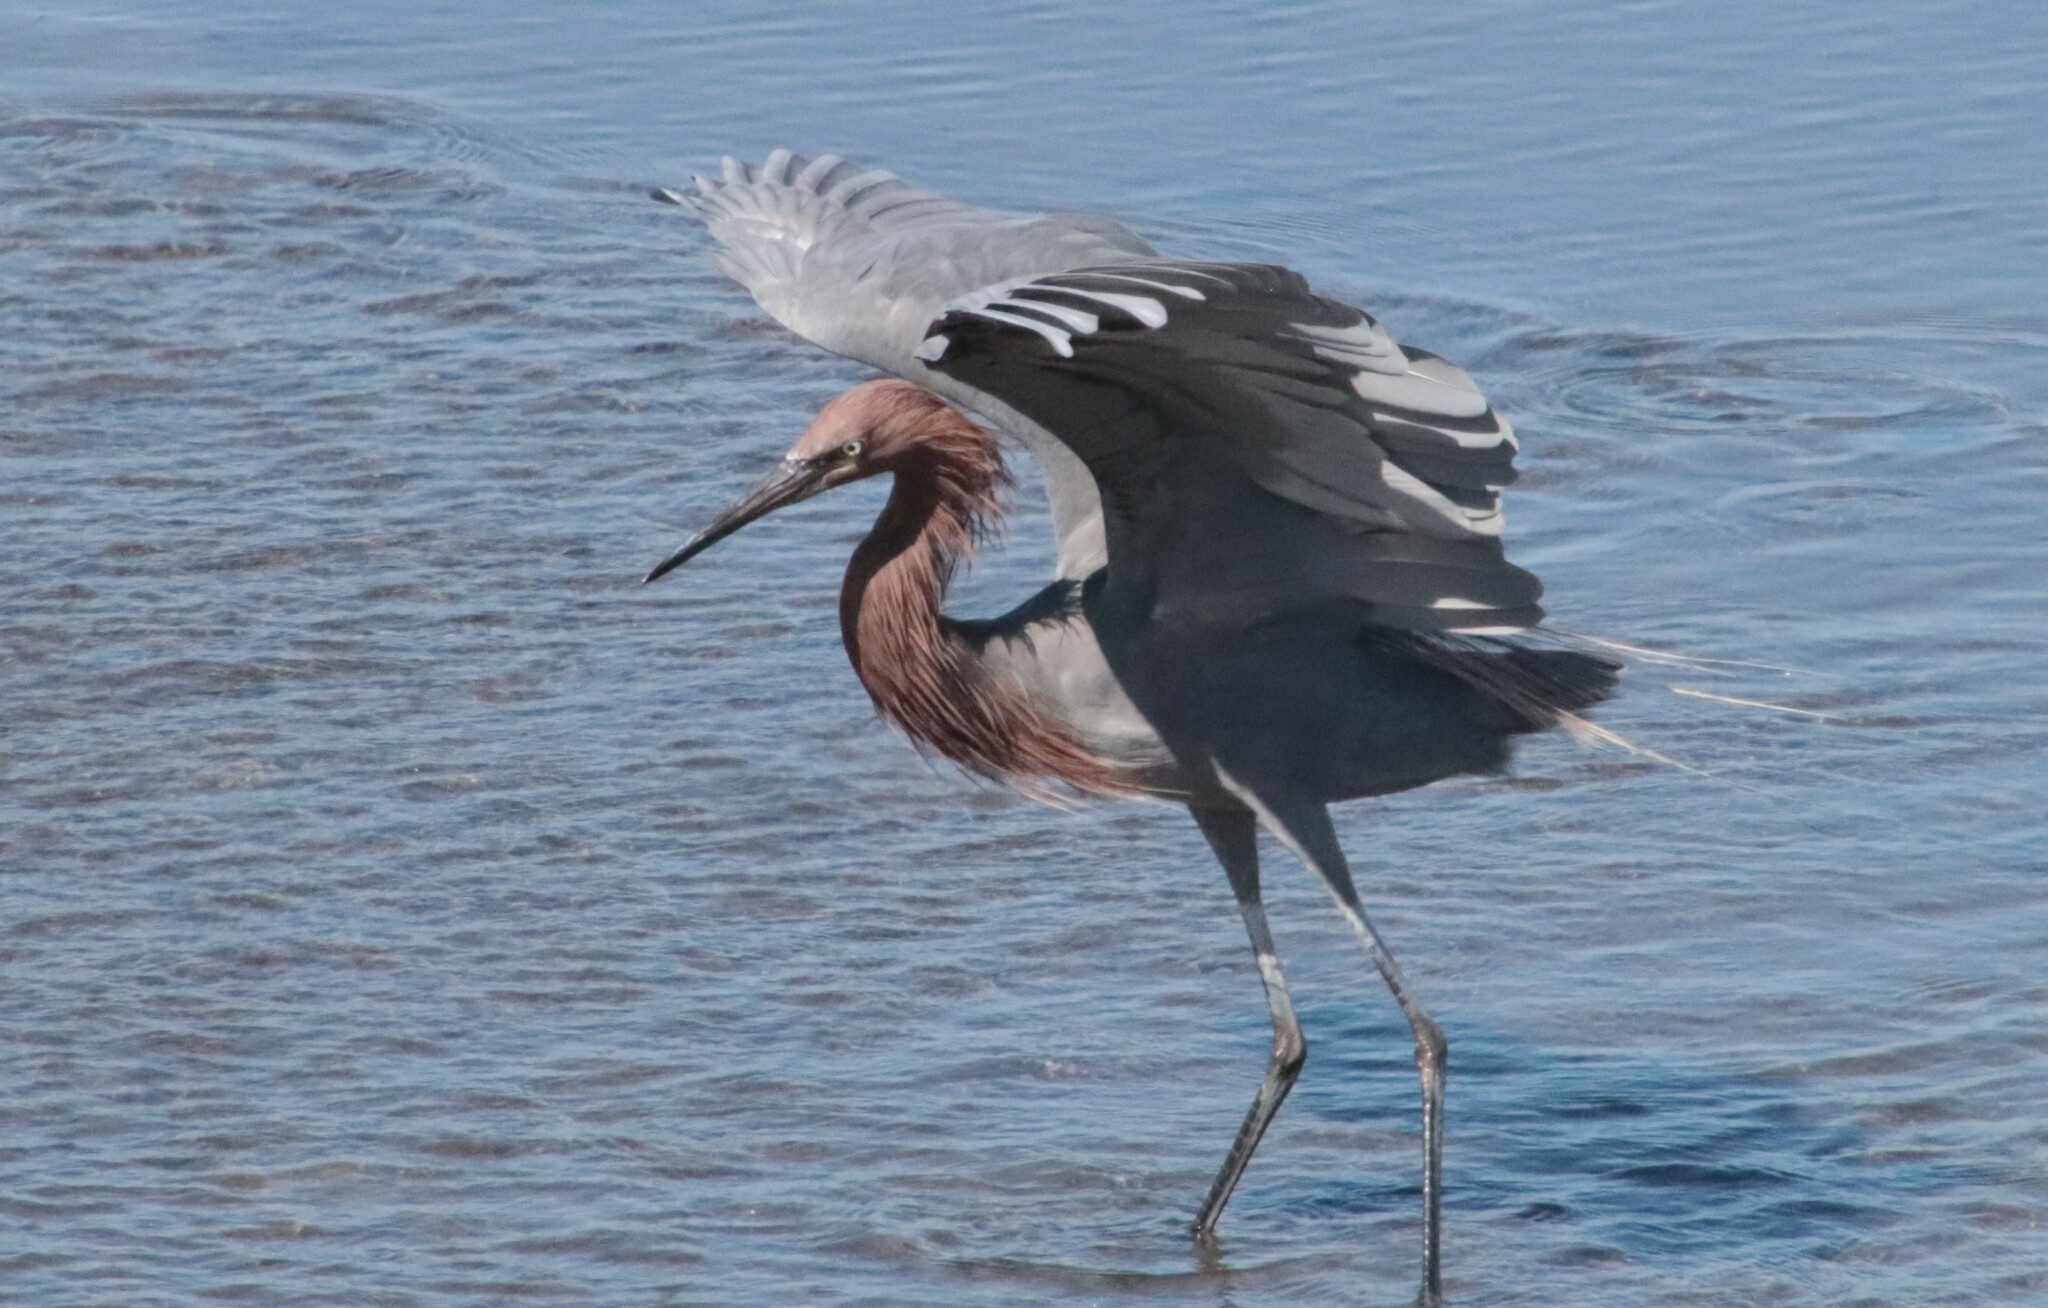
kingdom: Animalia
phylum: Chordata
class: Aves
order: Pelecaniformes
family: Ardeidae
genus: Egretta
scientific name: Egretta rufescens
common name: Reddish egret
